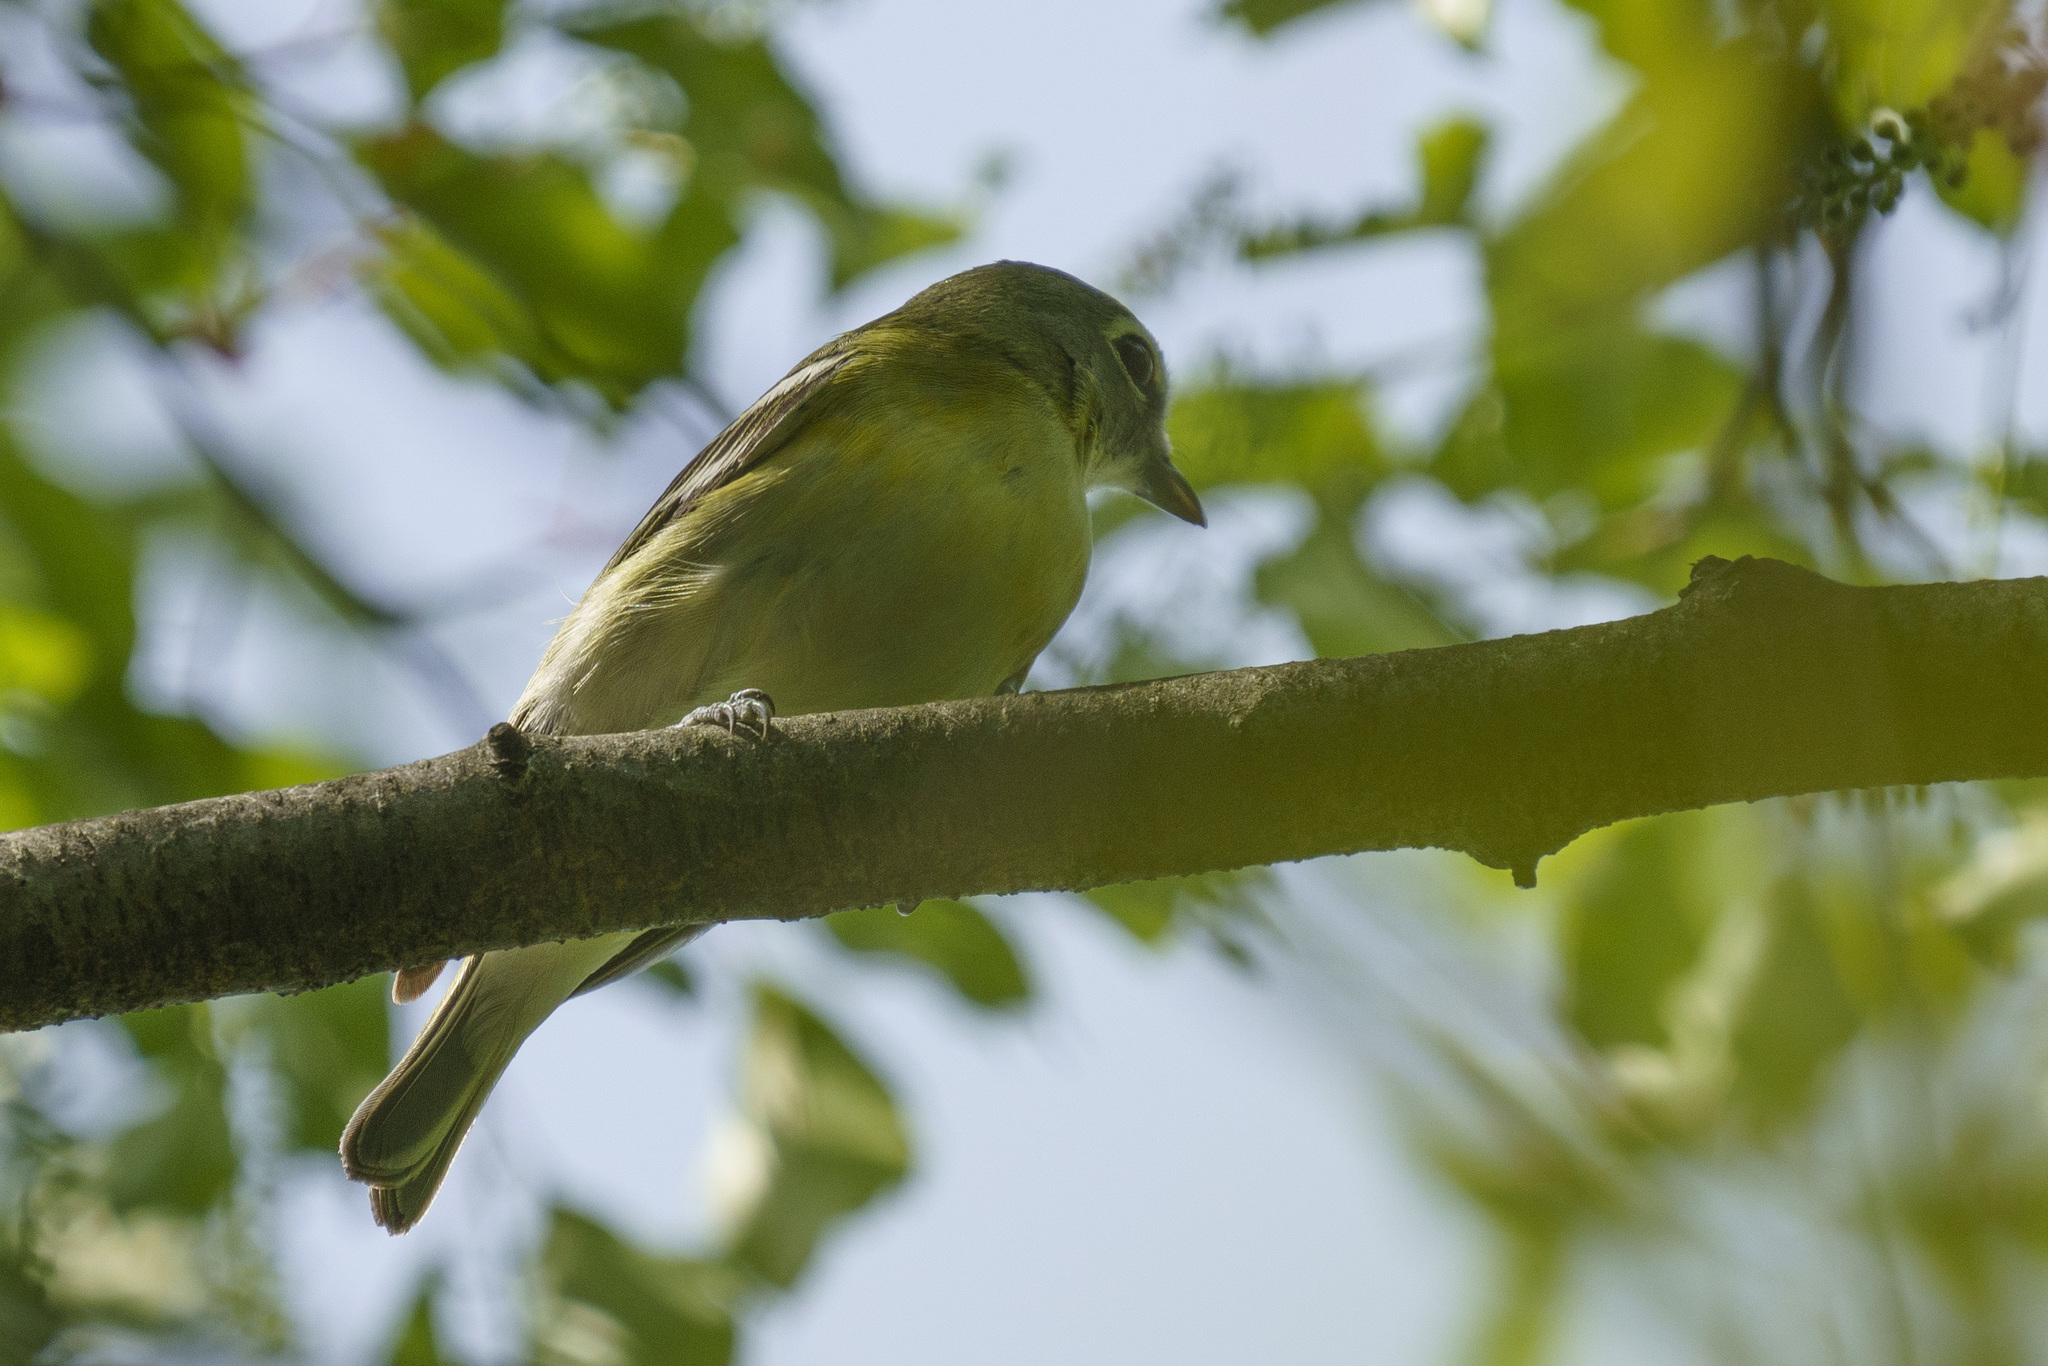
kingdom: Animalia
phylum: Chordata
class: Aves
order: Passeriformes
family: Vireonidae
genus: Vireo
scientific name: Vireo solitarius
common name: Blue-headed vireo
